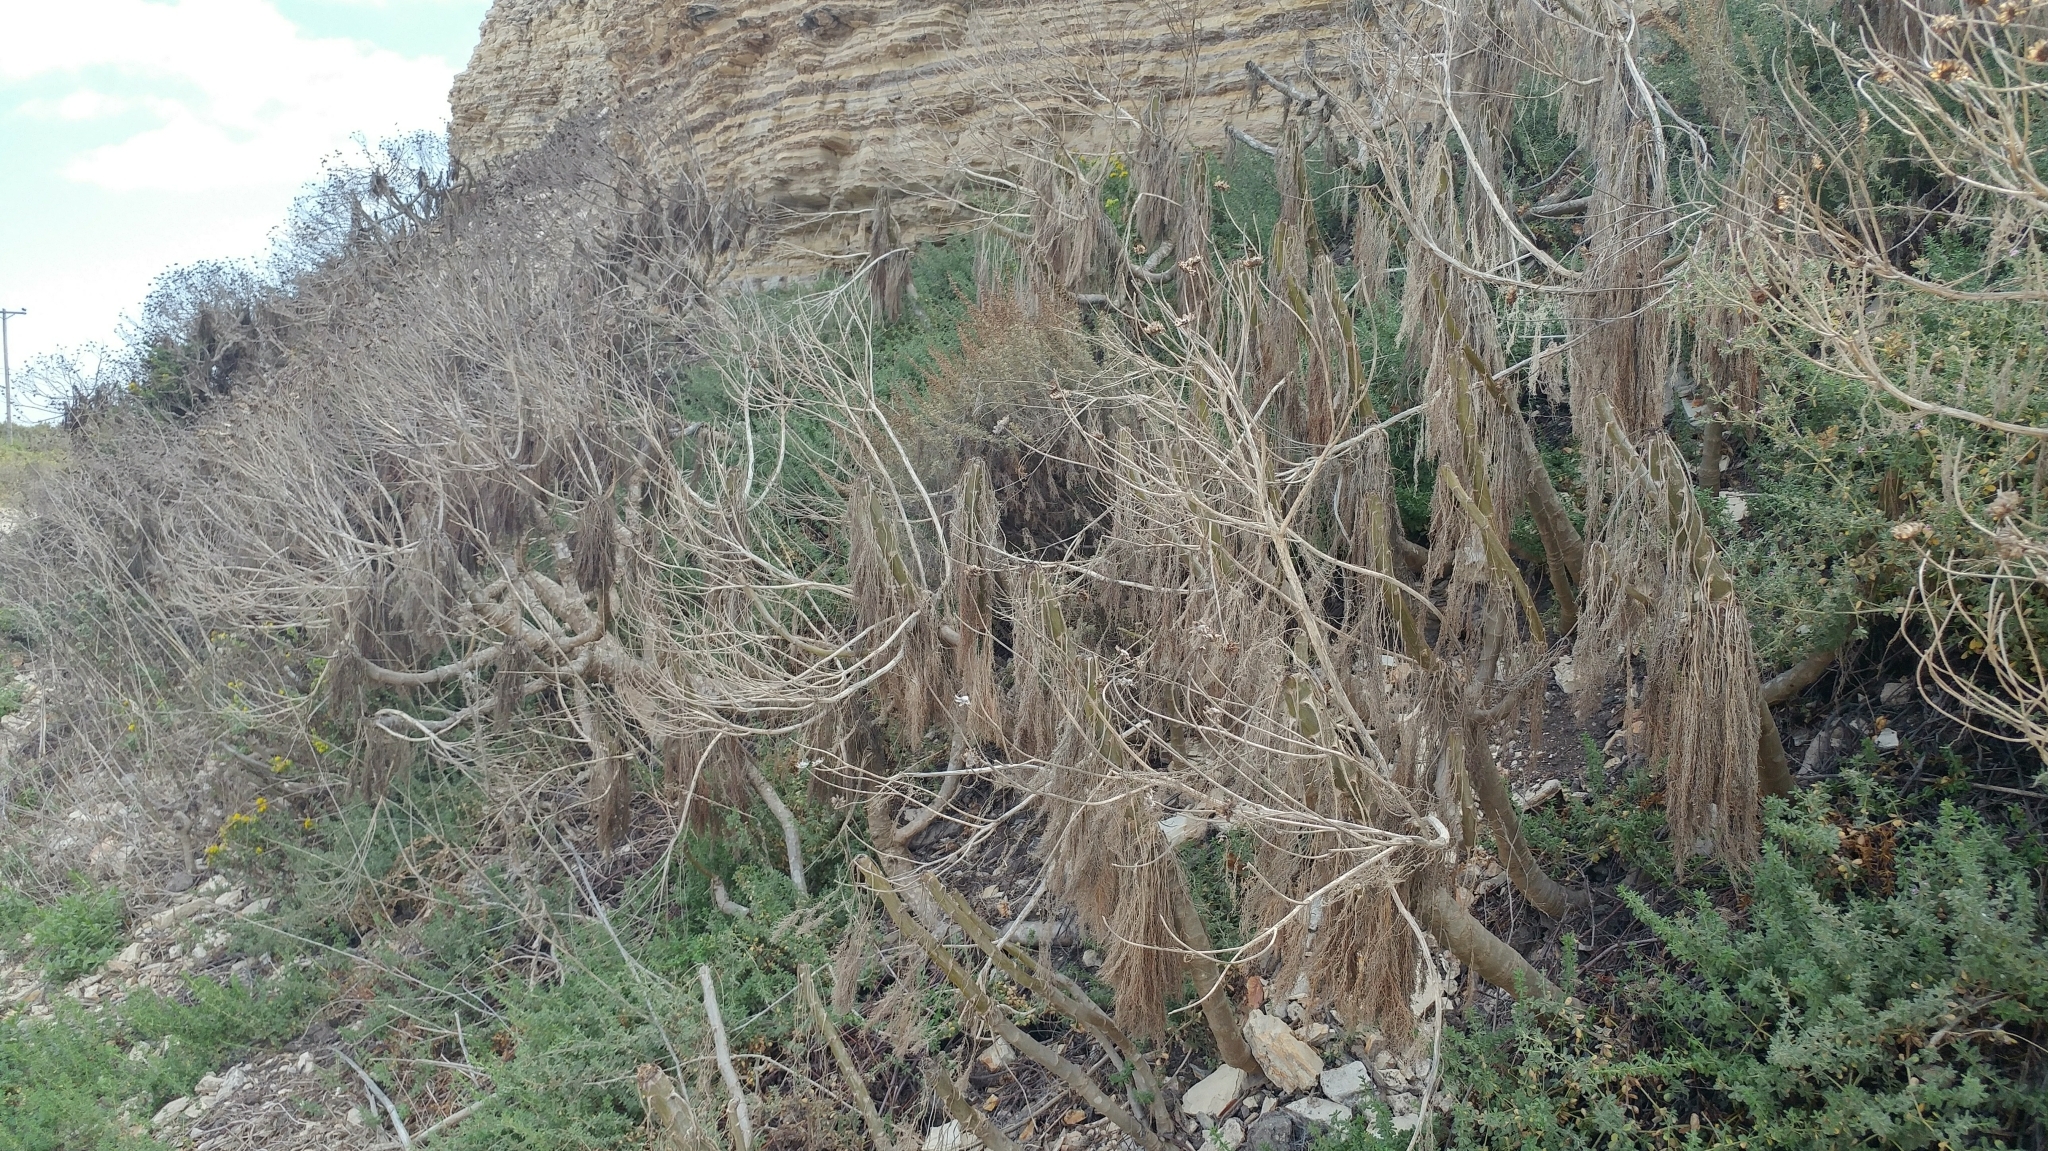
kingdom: Plantae
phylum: Tracheophyta
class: Magnoliopsida
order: Asterales
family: Asteraceae
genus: Coreopsis
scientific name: Coreopsis gigantea
